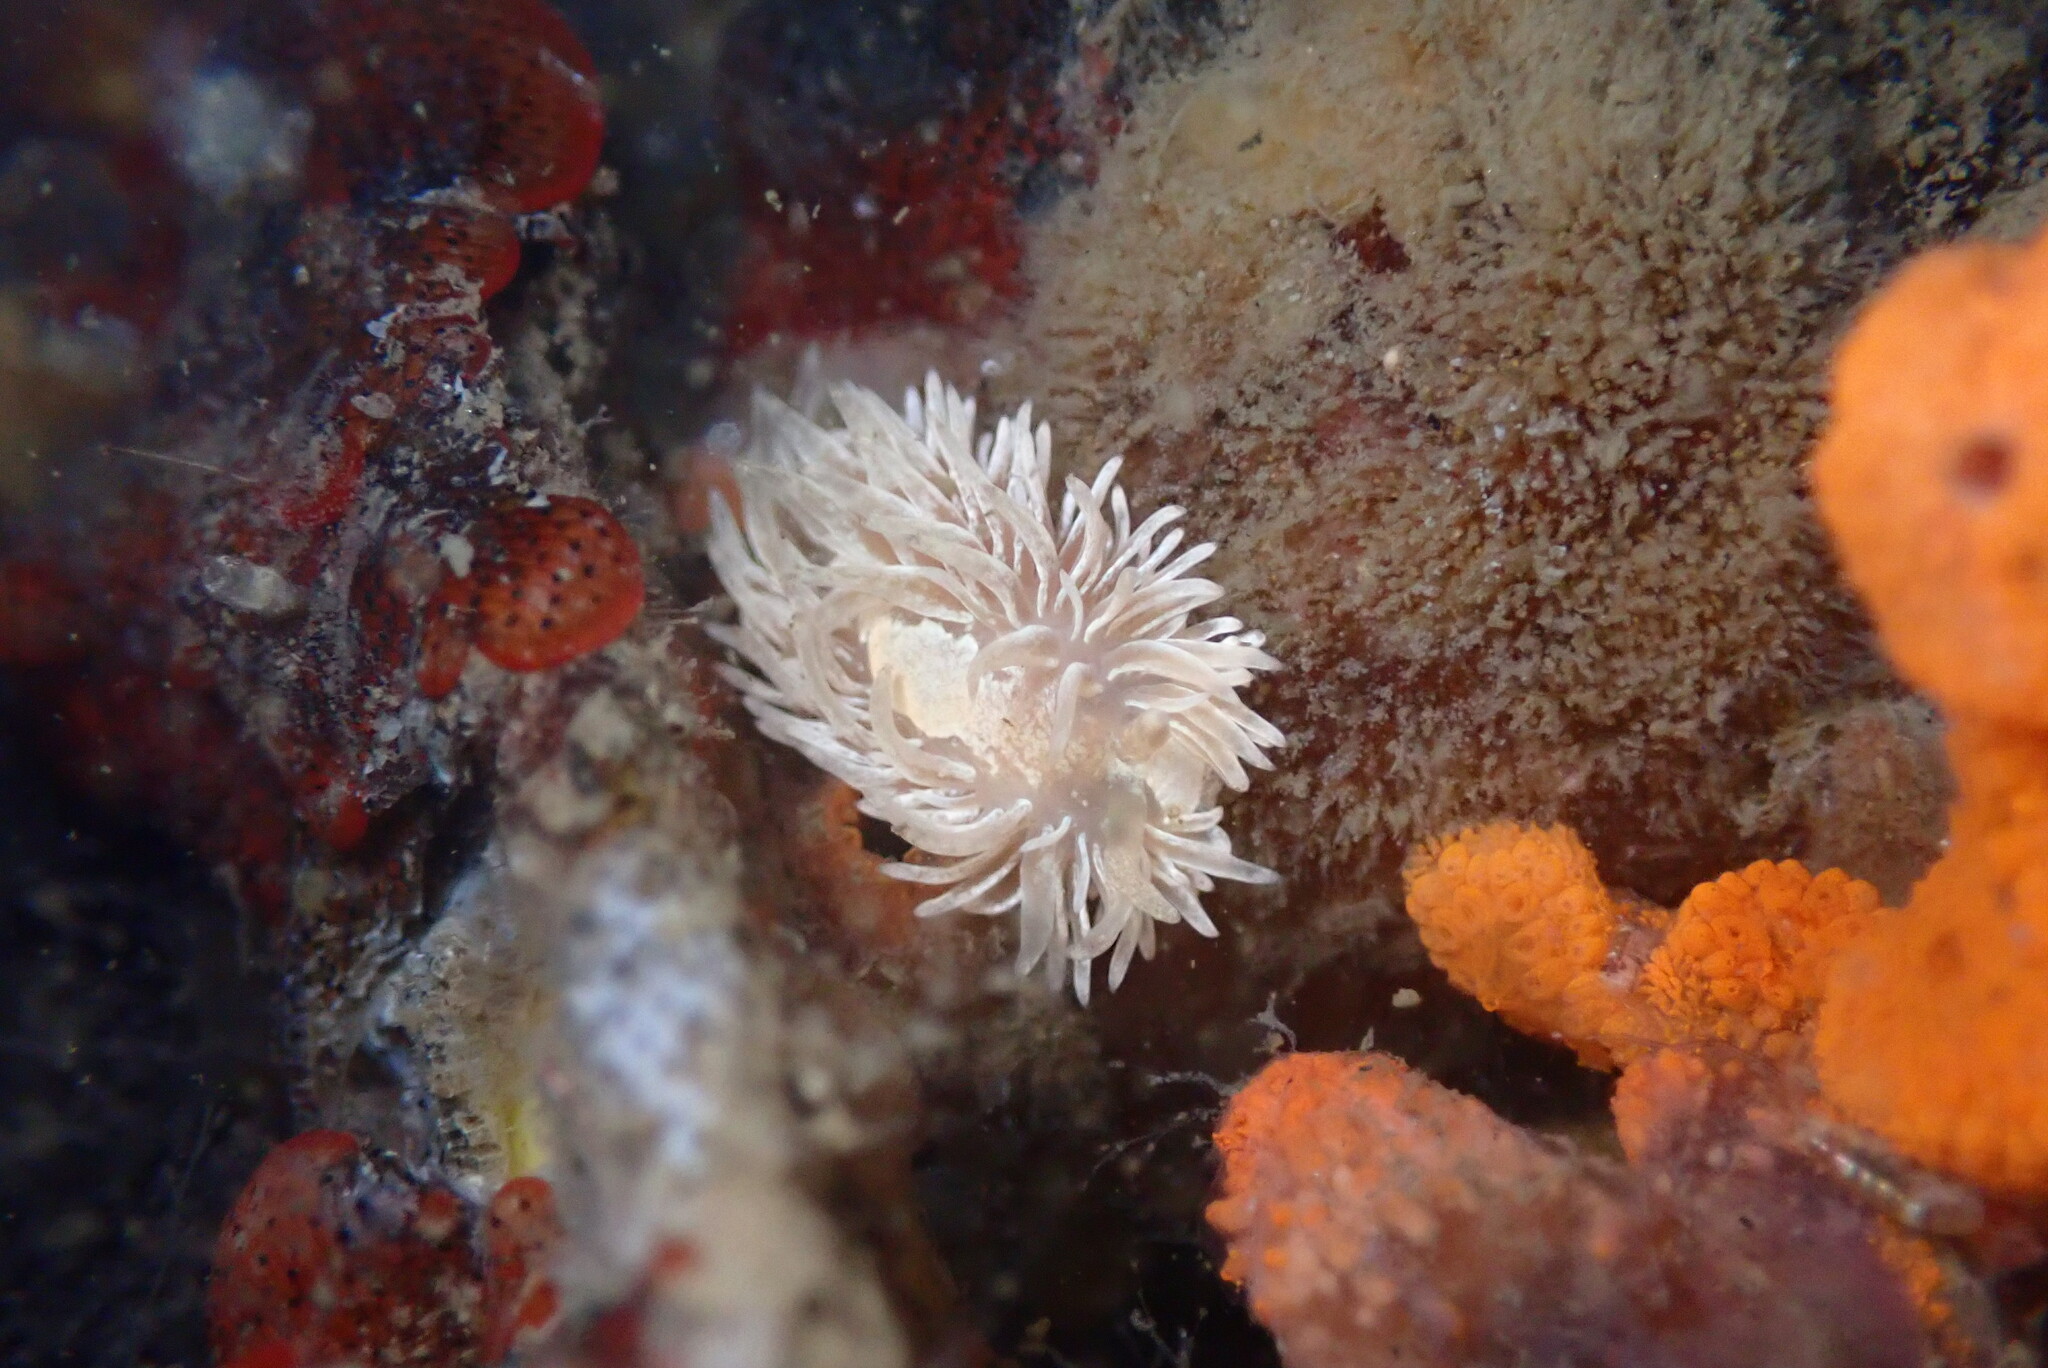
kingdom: Animalia
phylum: Mollusca
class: Gastropoda
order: Nudibranchia
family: Aeolidiidae
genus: Aeolidia
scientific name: Aeolidia loui
